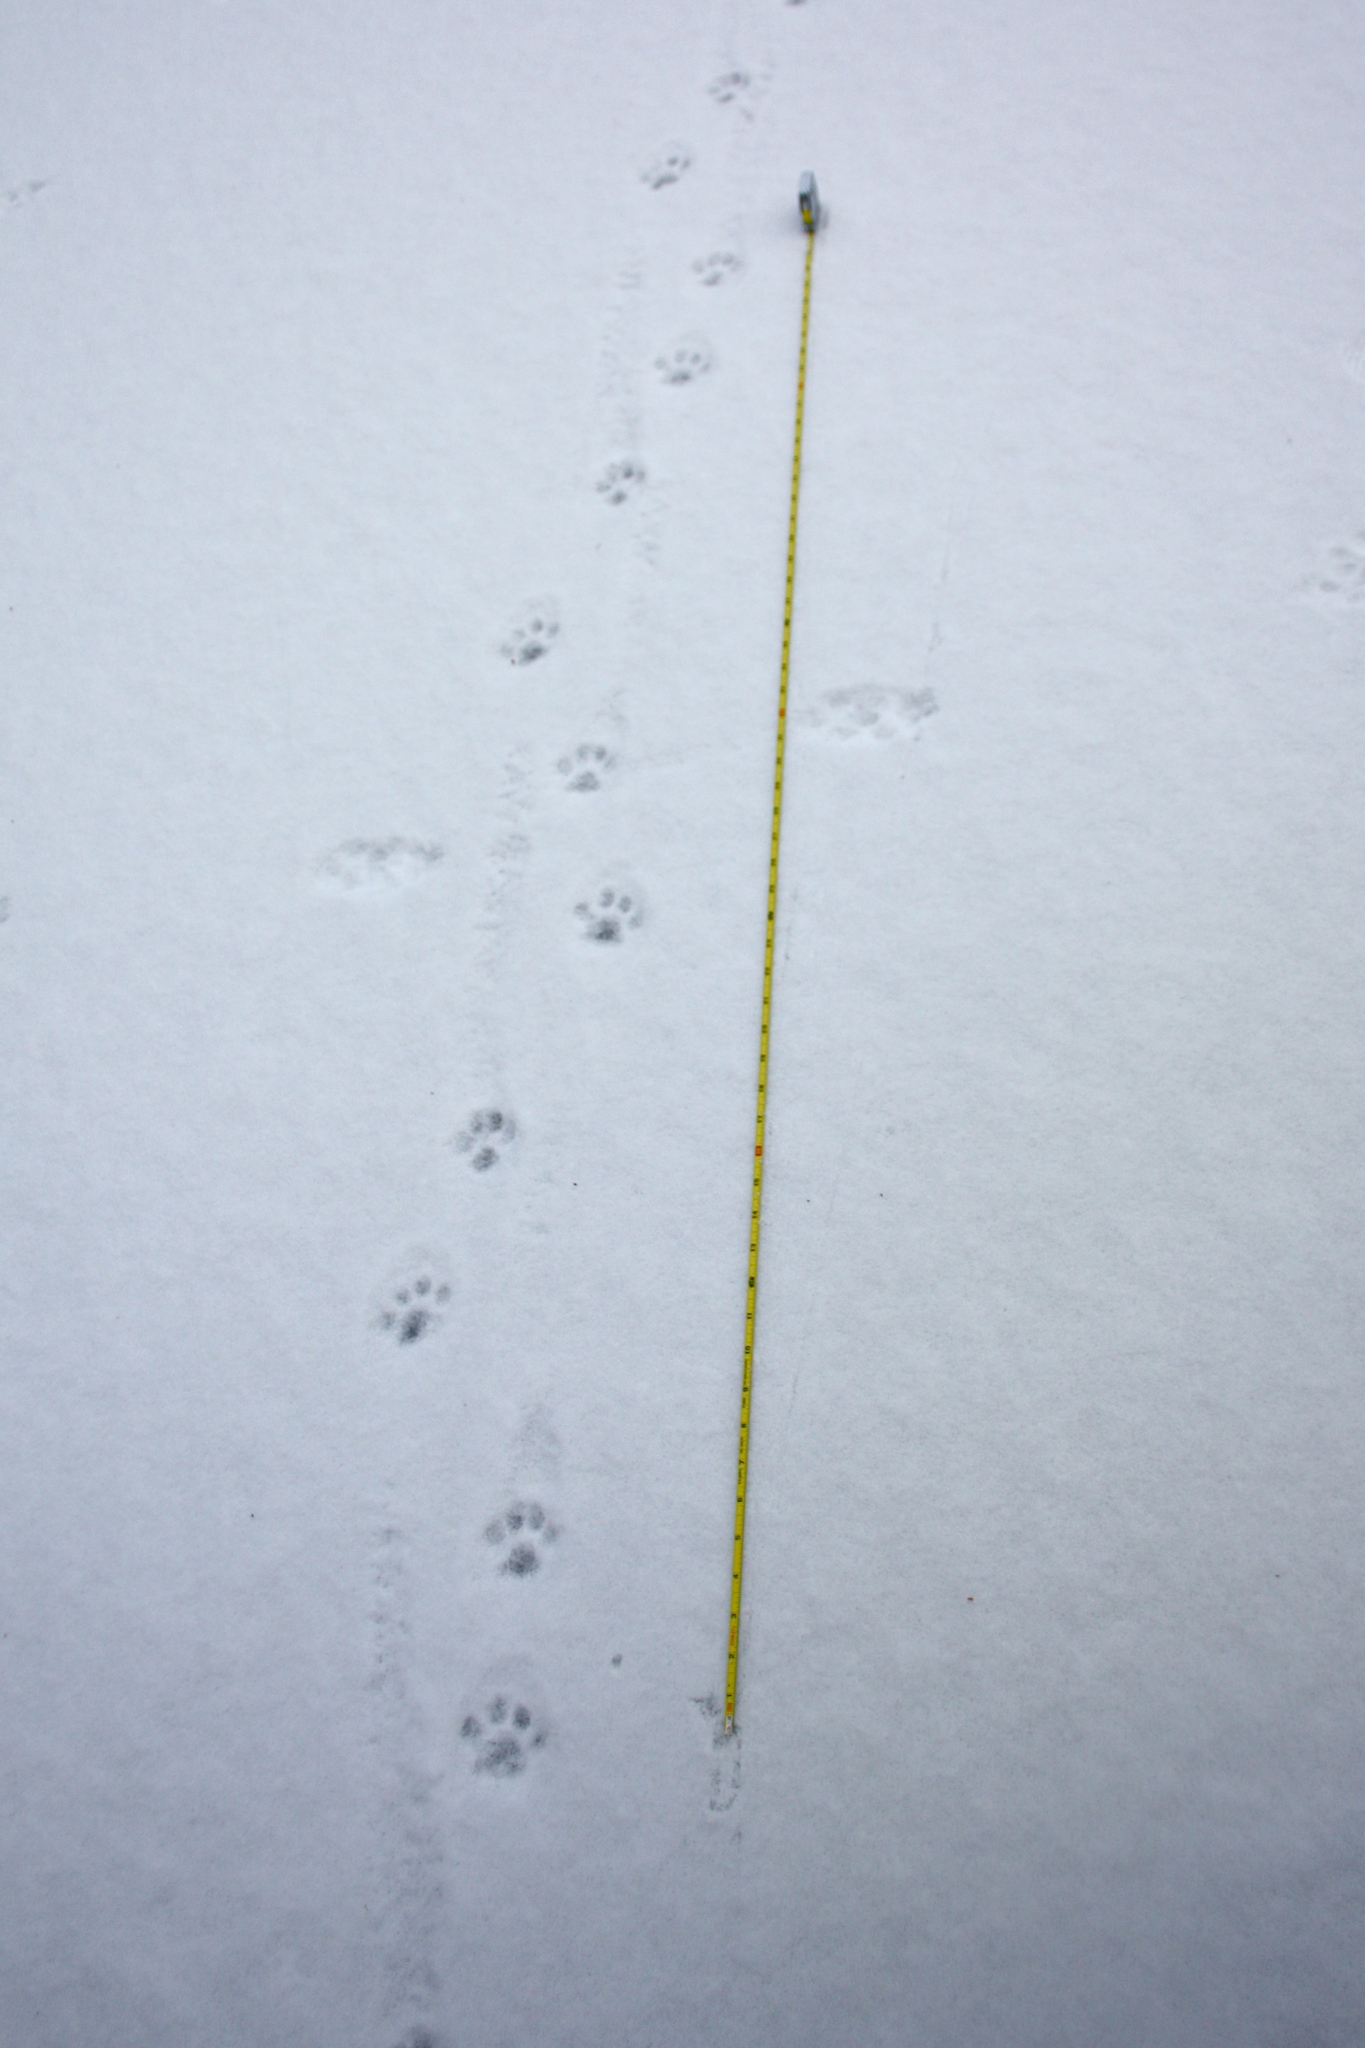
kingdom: Animalia
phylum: Chordata
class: Mammalia
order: Carnivora
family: Felidae
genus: Lynx
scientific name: Lynx rufus
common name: Bobcat
